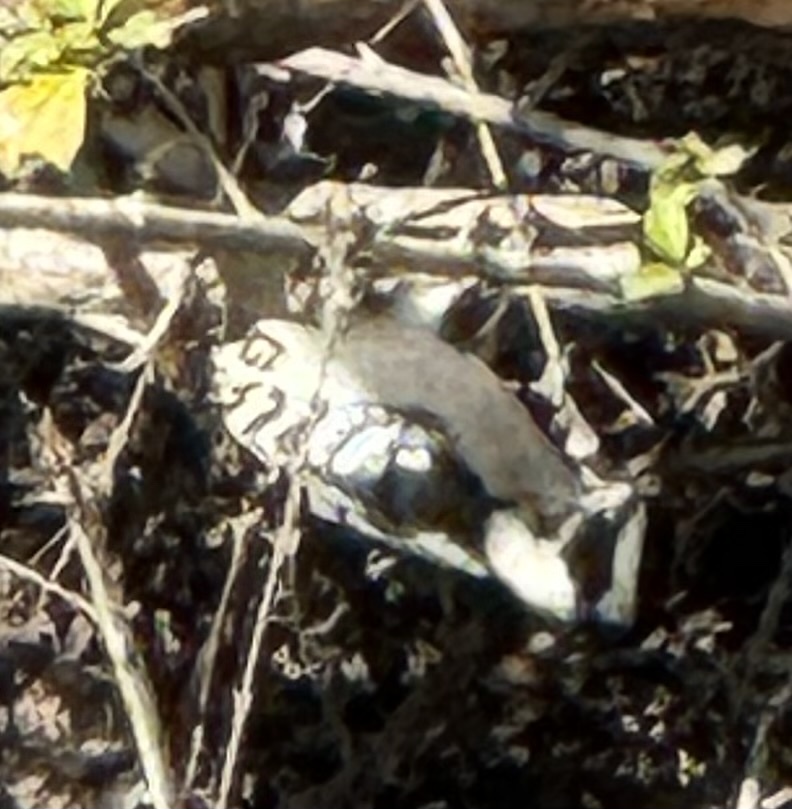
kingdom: Animalia
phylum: Chordata
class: Aves
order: Piciformes
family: Picidae
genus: Dryobates
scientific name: Dryobates pubescens
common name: Downy woodpecker
